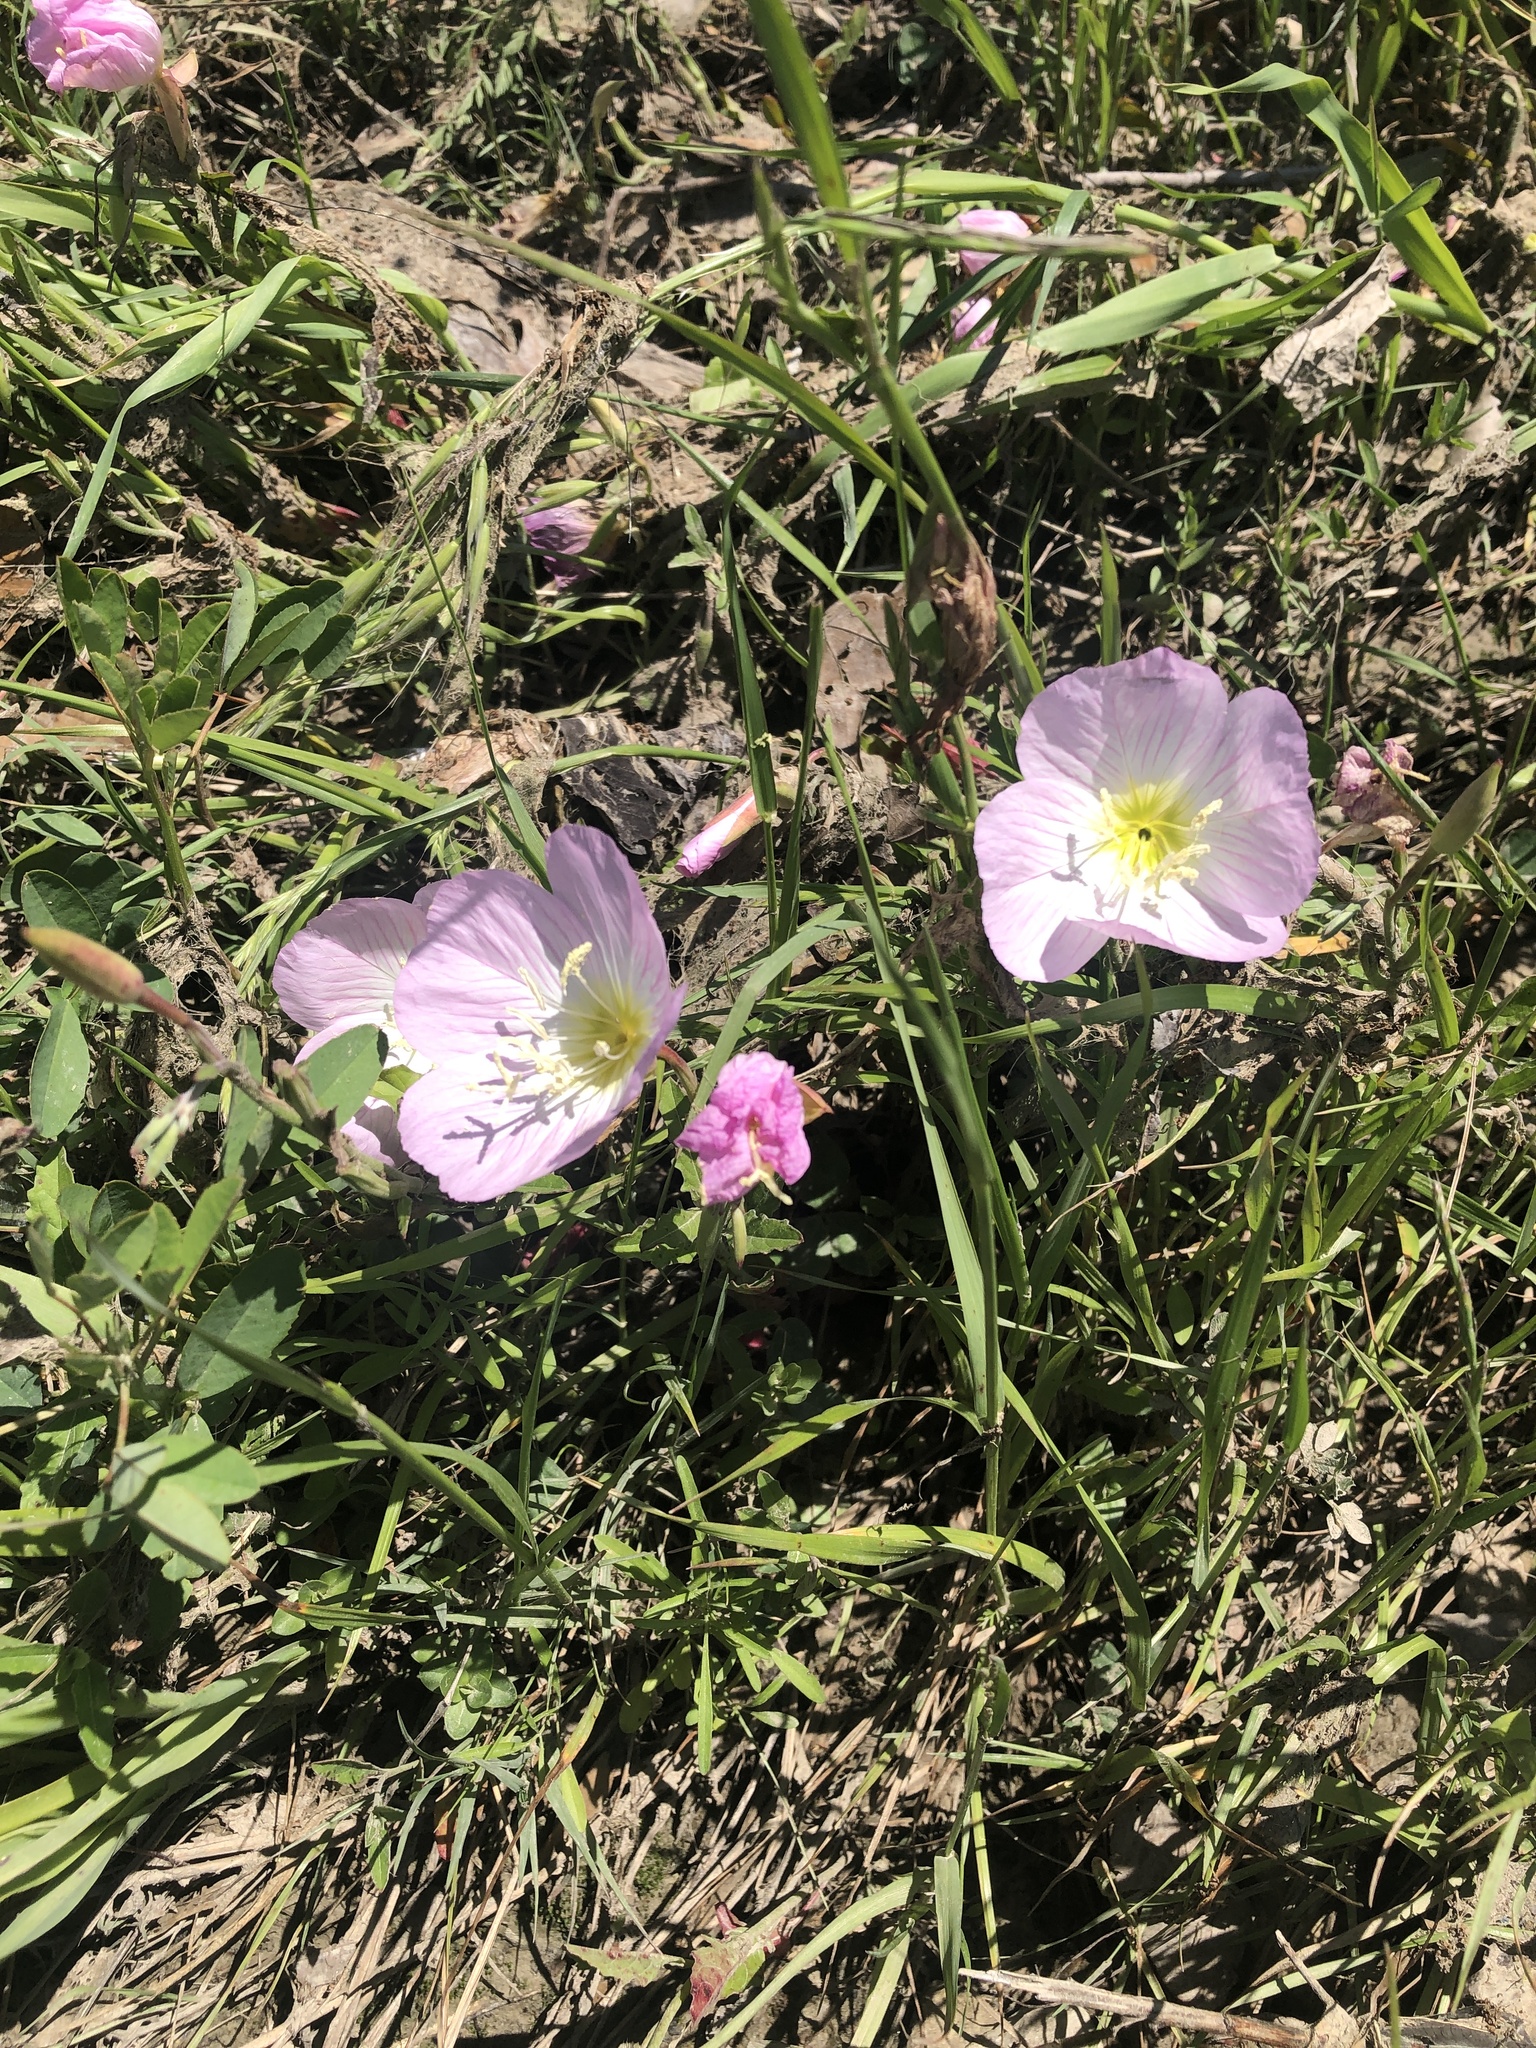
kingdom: Plantae
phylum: Tracheophyta
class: Magnoliopsida
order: Myrtales
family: Onagraceae
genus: Oenothera
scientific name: Oenothera speciosa
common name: White evening-primrose
